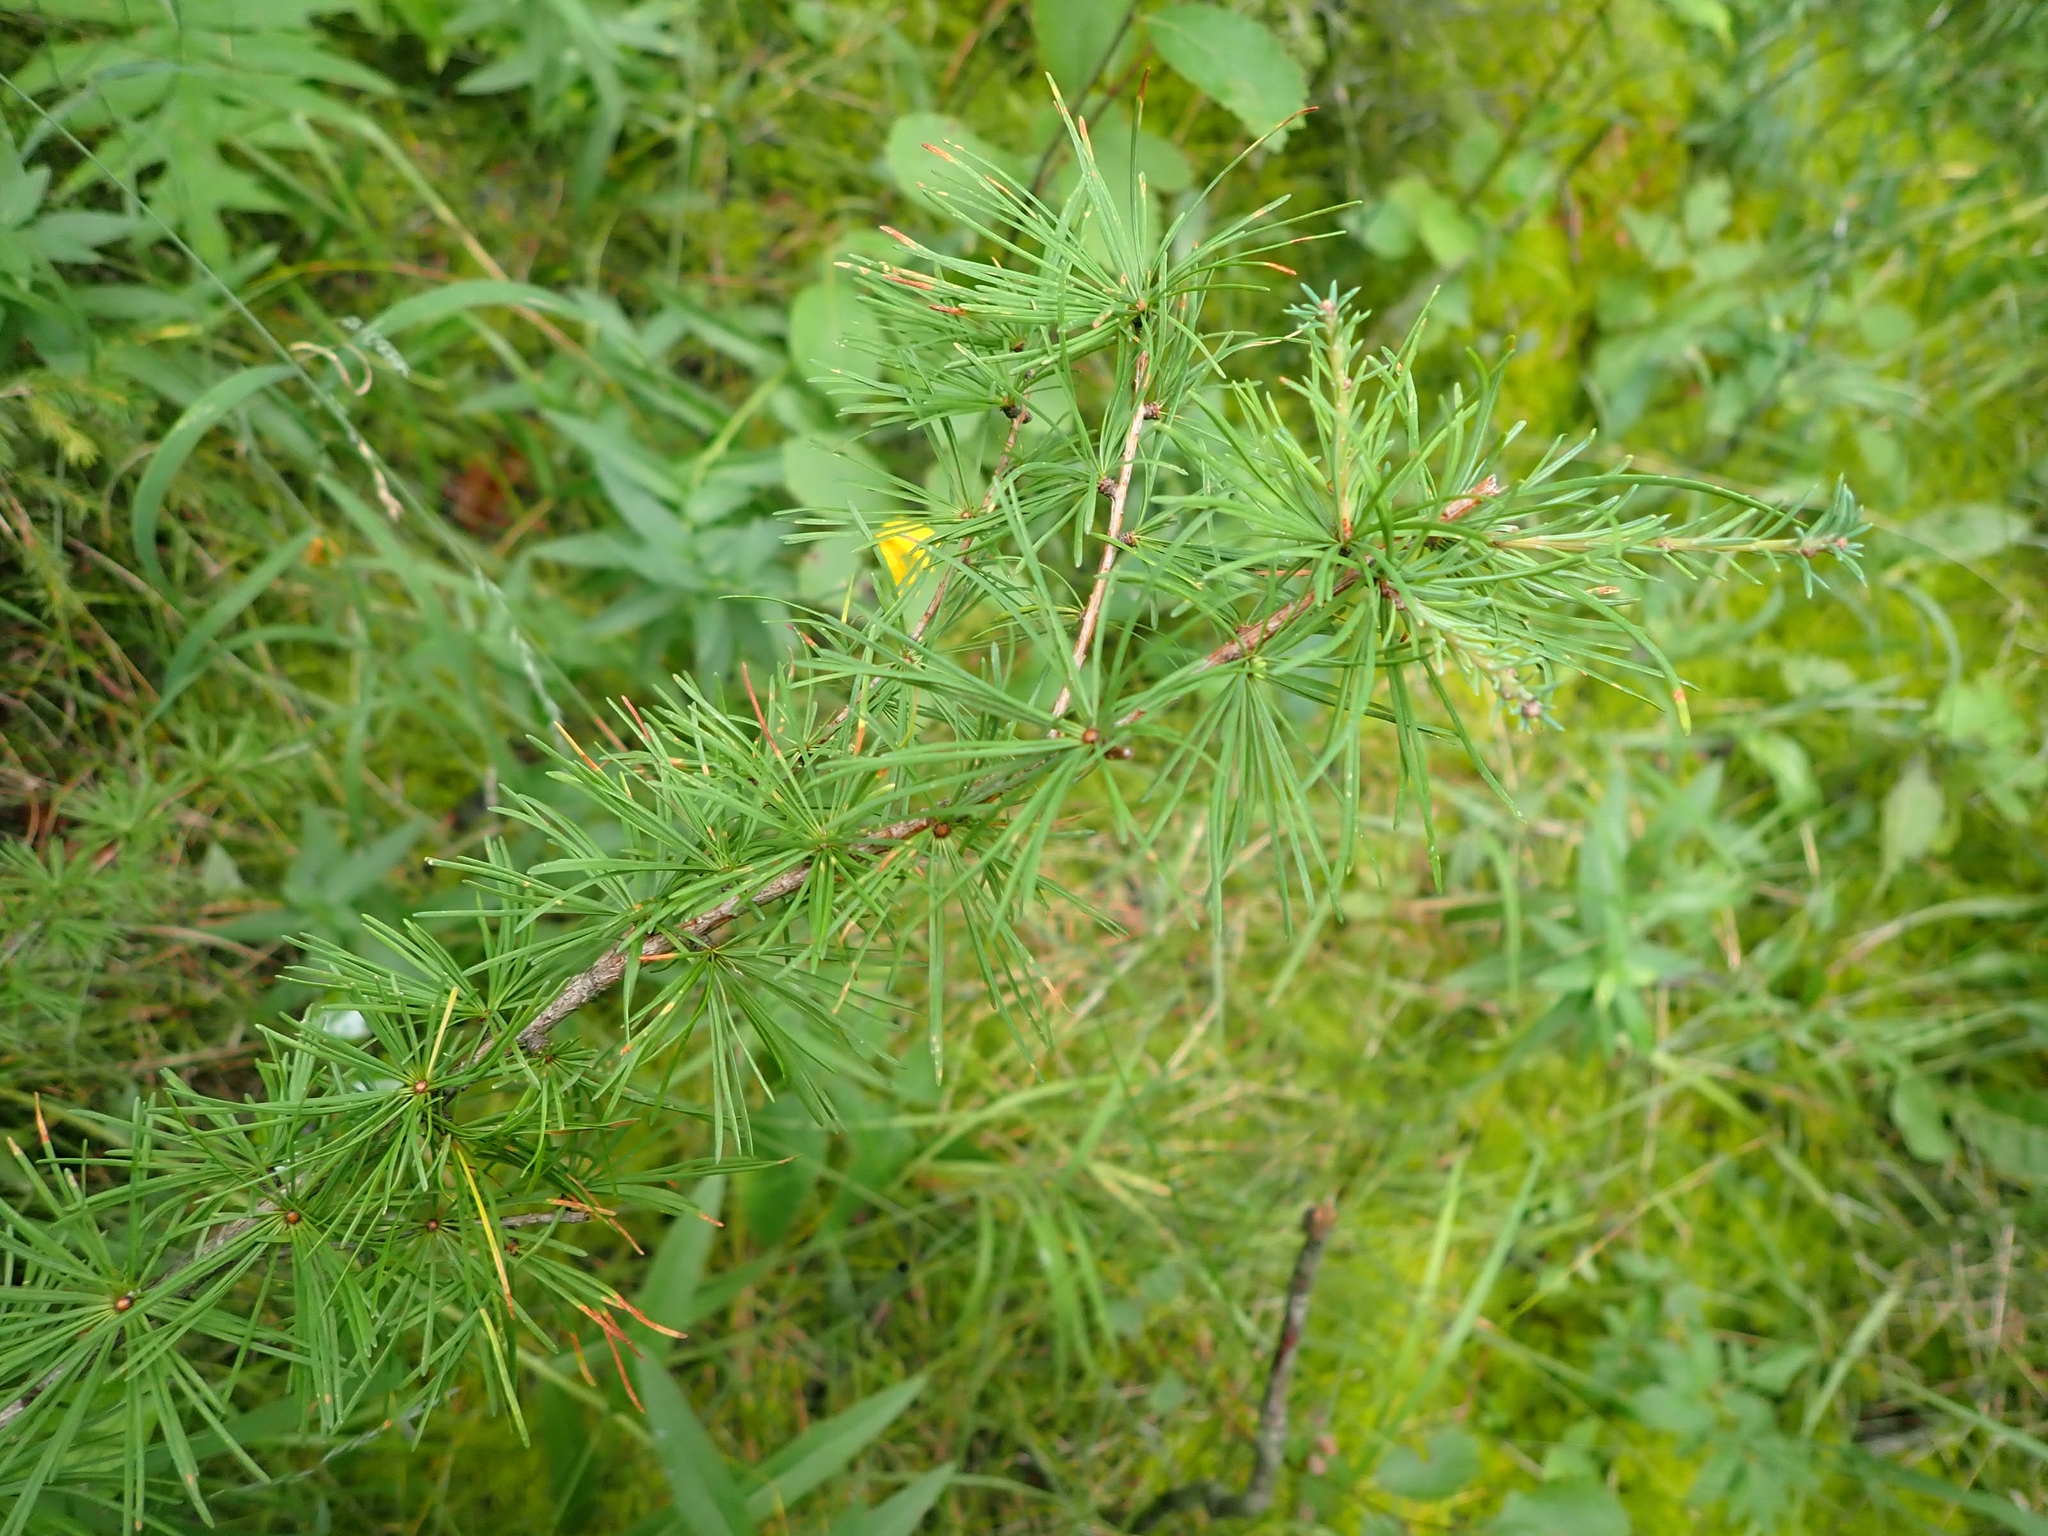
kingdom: Plantae
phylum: Tracheophyta
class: Pinopsida
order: Pinales
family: Pinaceae
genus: Larix
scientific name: Larix laricina
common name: American larch
